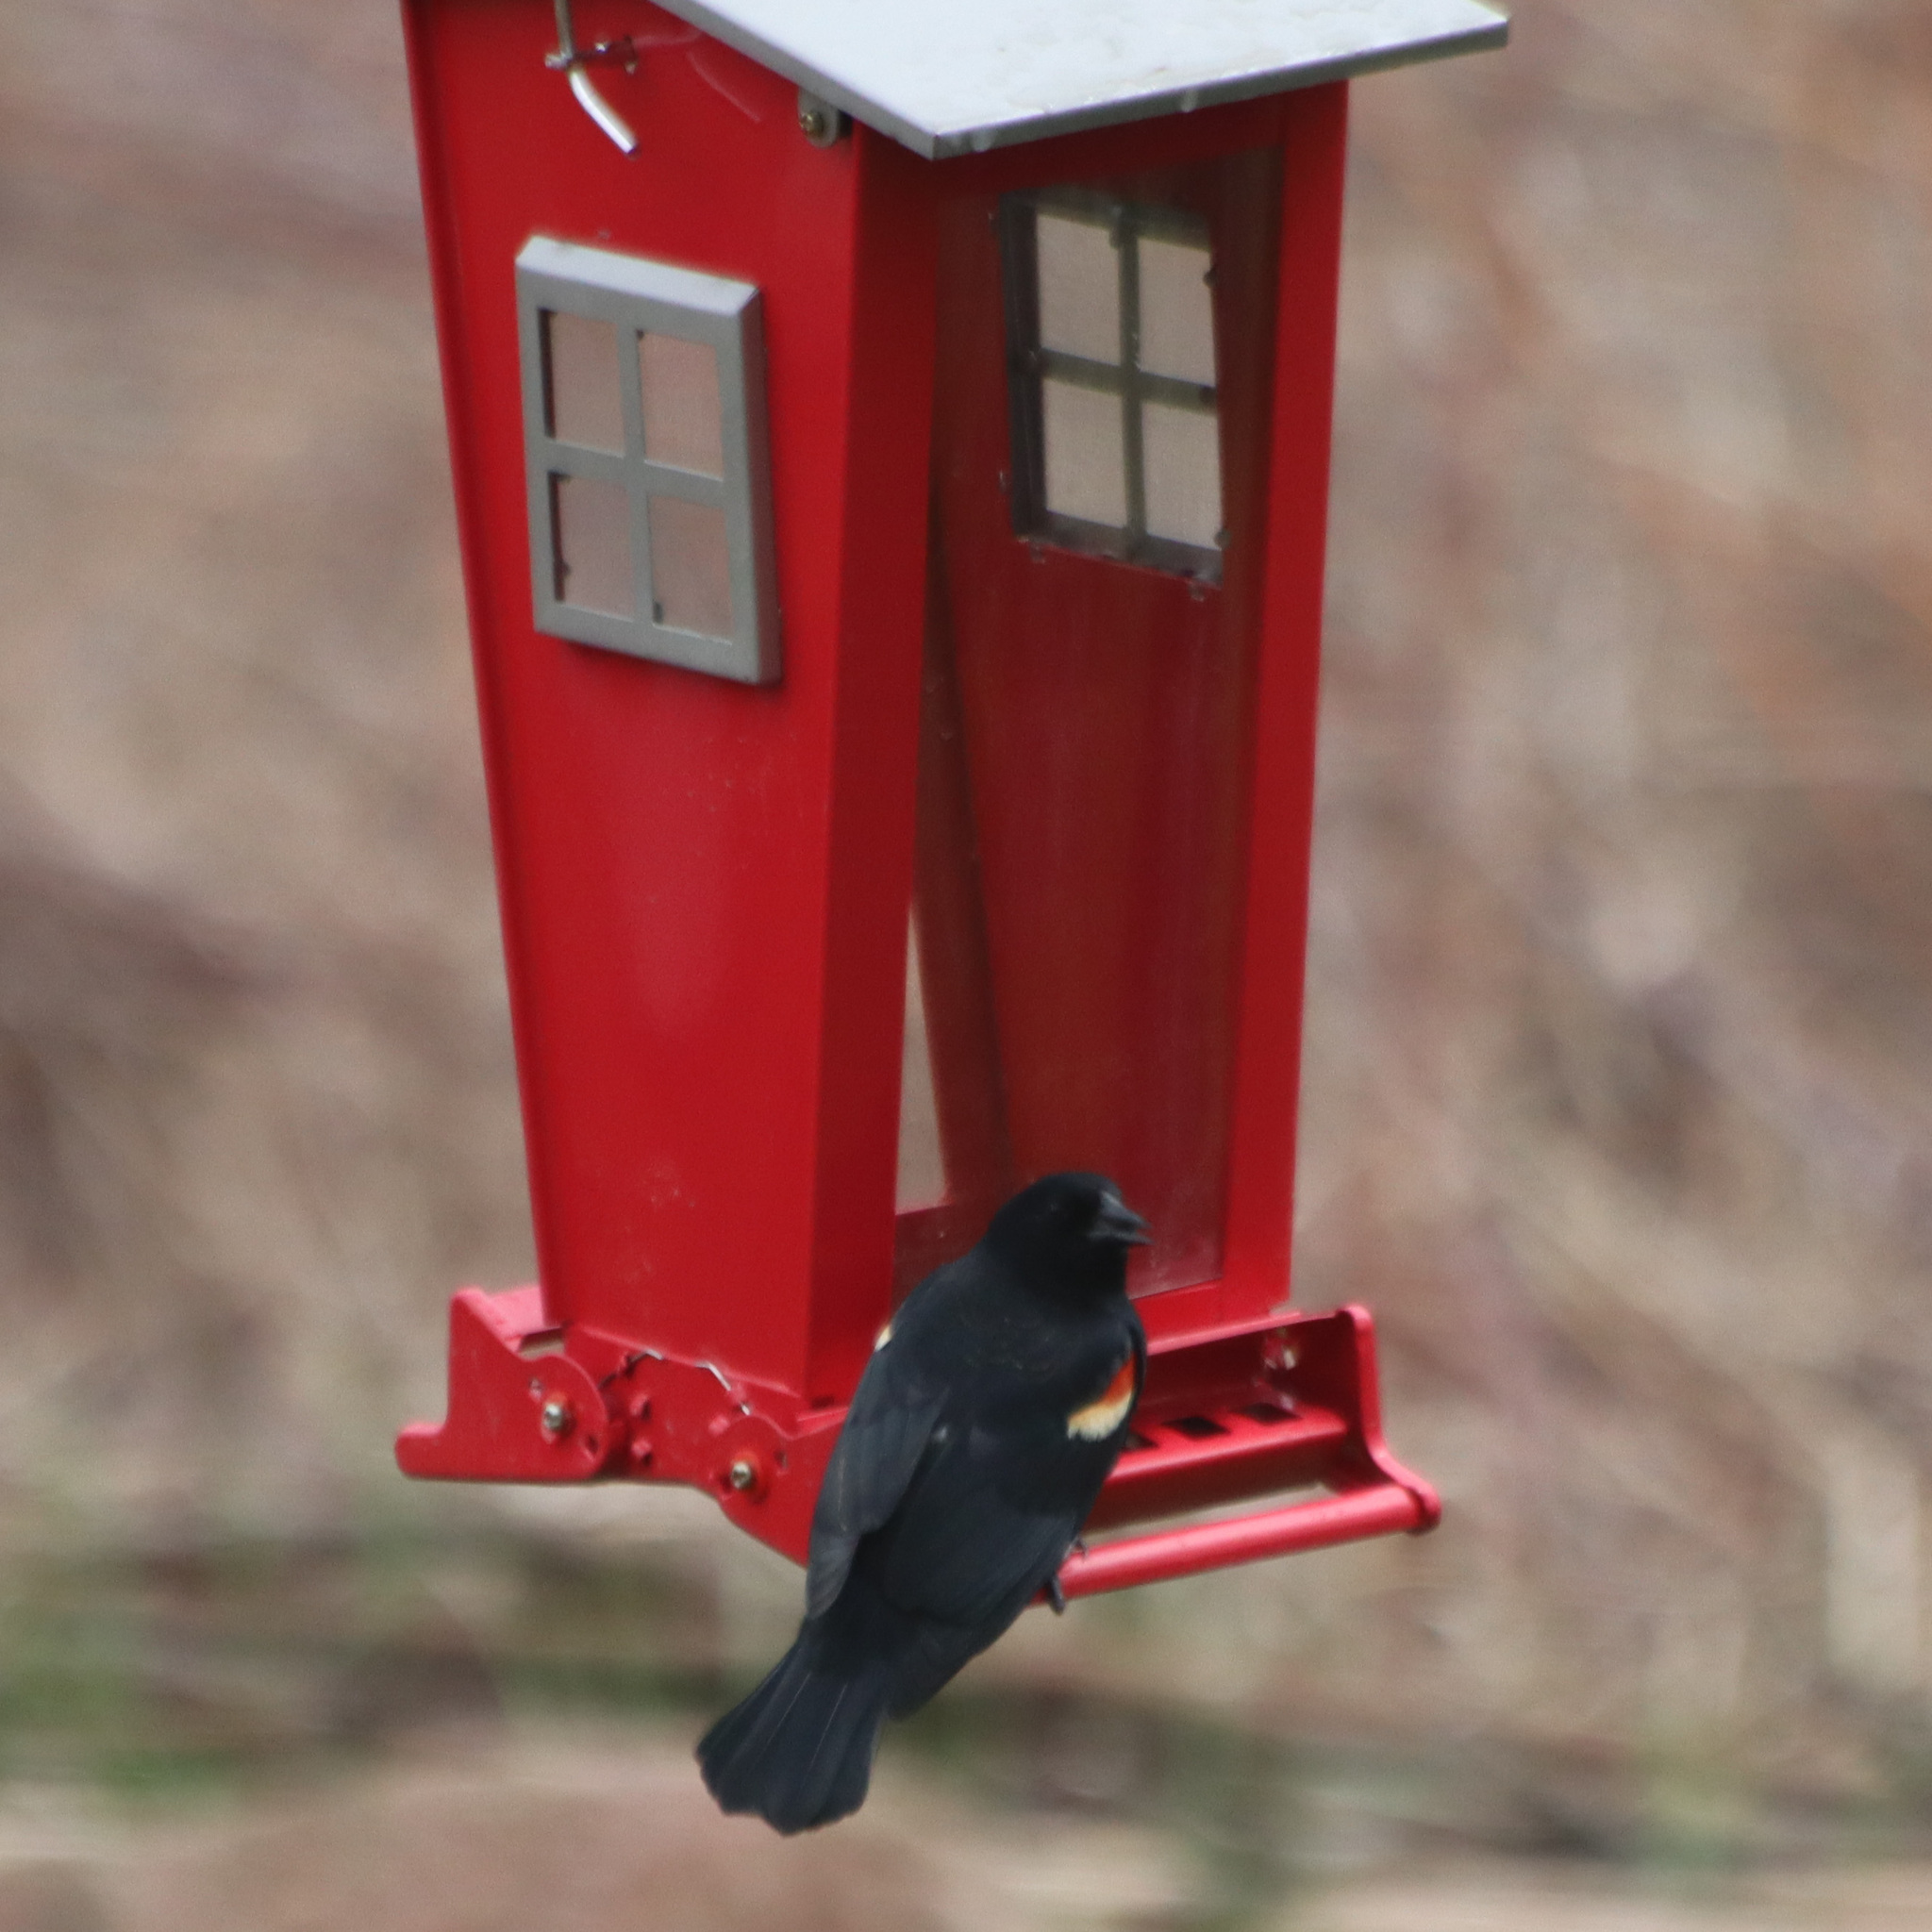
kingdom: Animalia
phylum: Chordata
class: Aves
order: Passeriformes
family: Icteridae
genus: Agelaius
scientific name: Agelaius phoeniceus
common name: Red-winged blackbird
